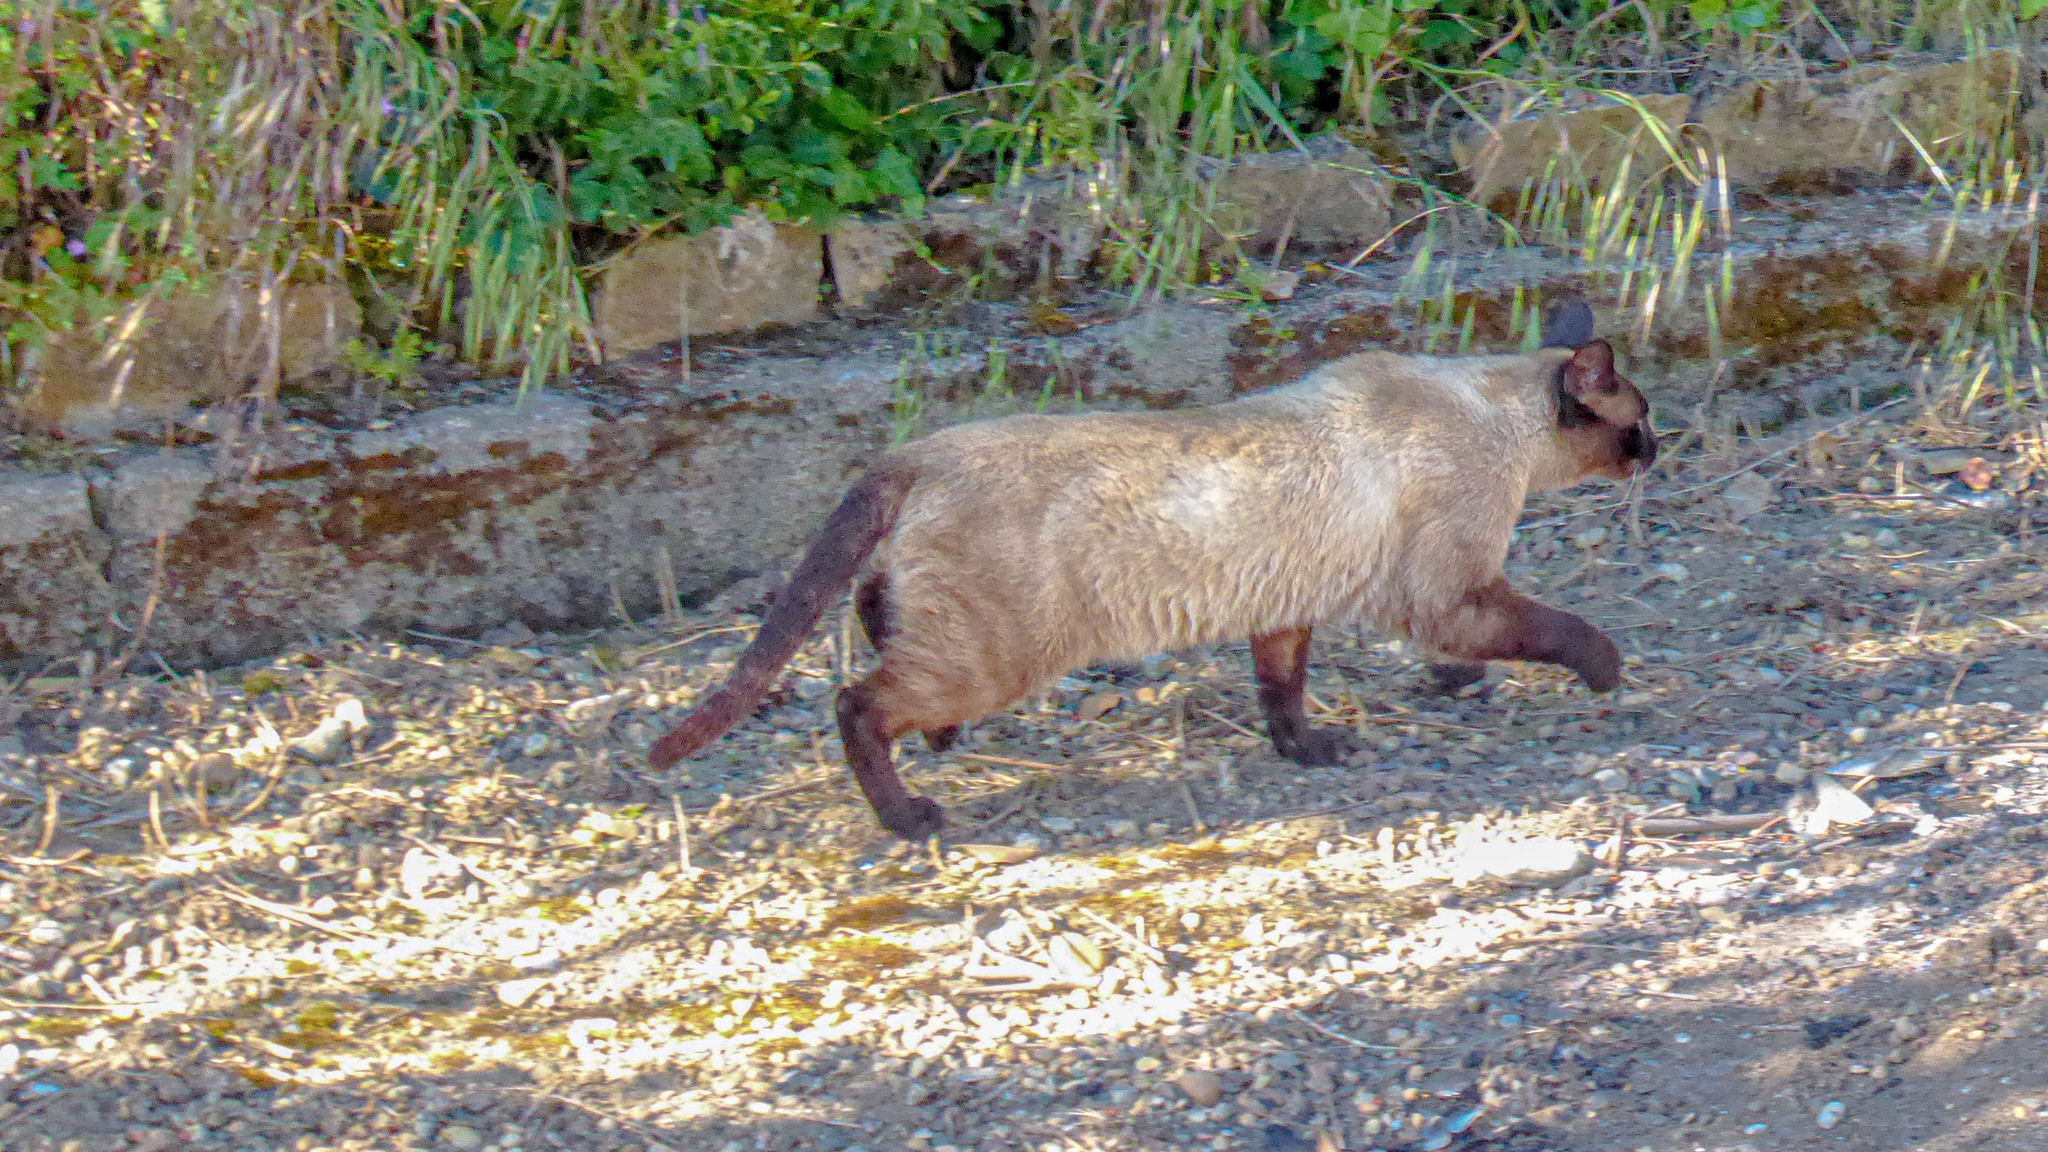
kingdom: Animalia
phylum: Chordata
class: Mammalia
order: Carnivora
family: Felidae
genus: Felis
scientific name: Felis catus
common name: Domestic cat
